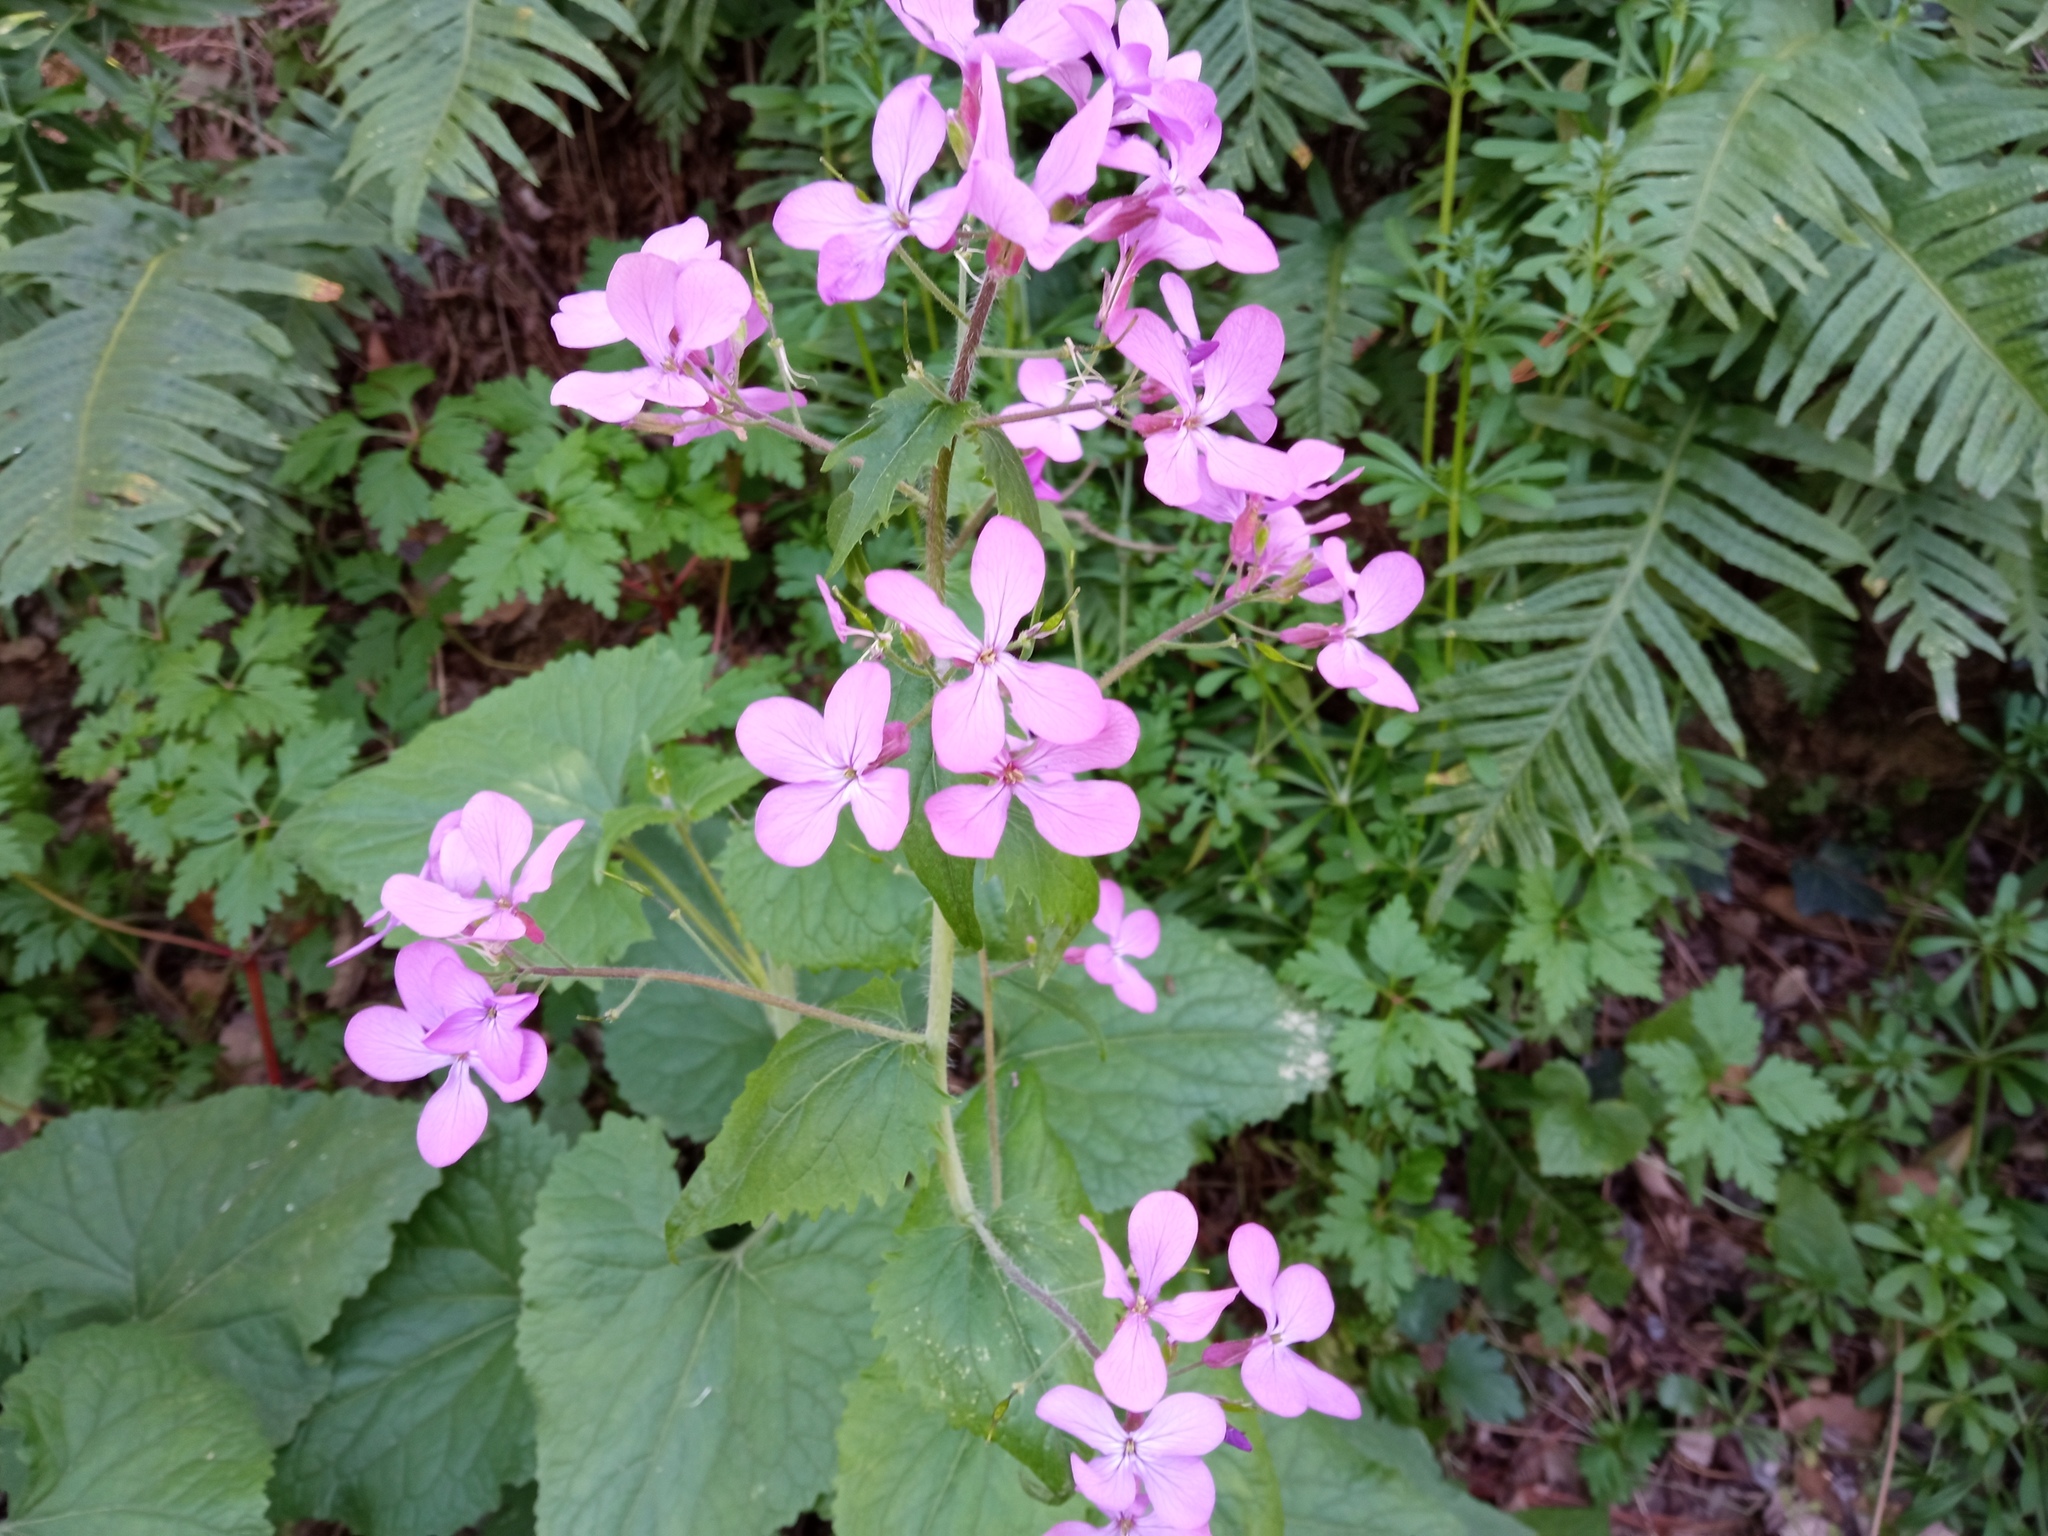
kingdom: Plantae
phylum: Tracheophyta
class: Magnoliopsida
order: Brassicales
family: Brassicaceae
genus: Lunaria
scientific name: Lunaria annua
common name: Honesty
